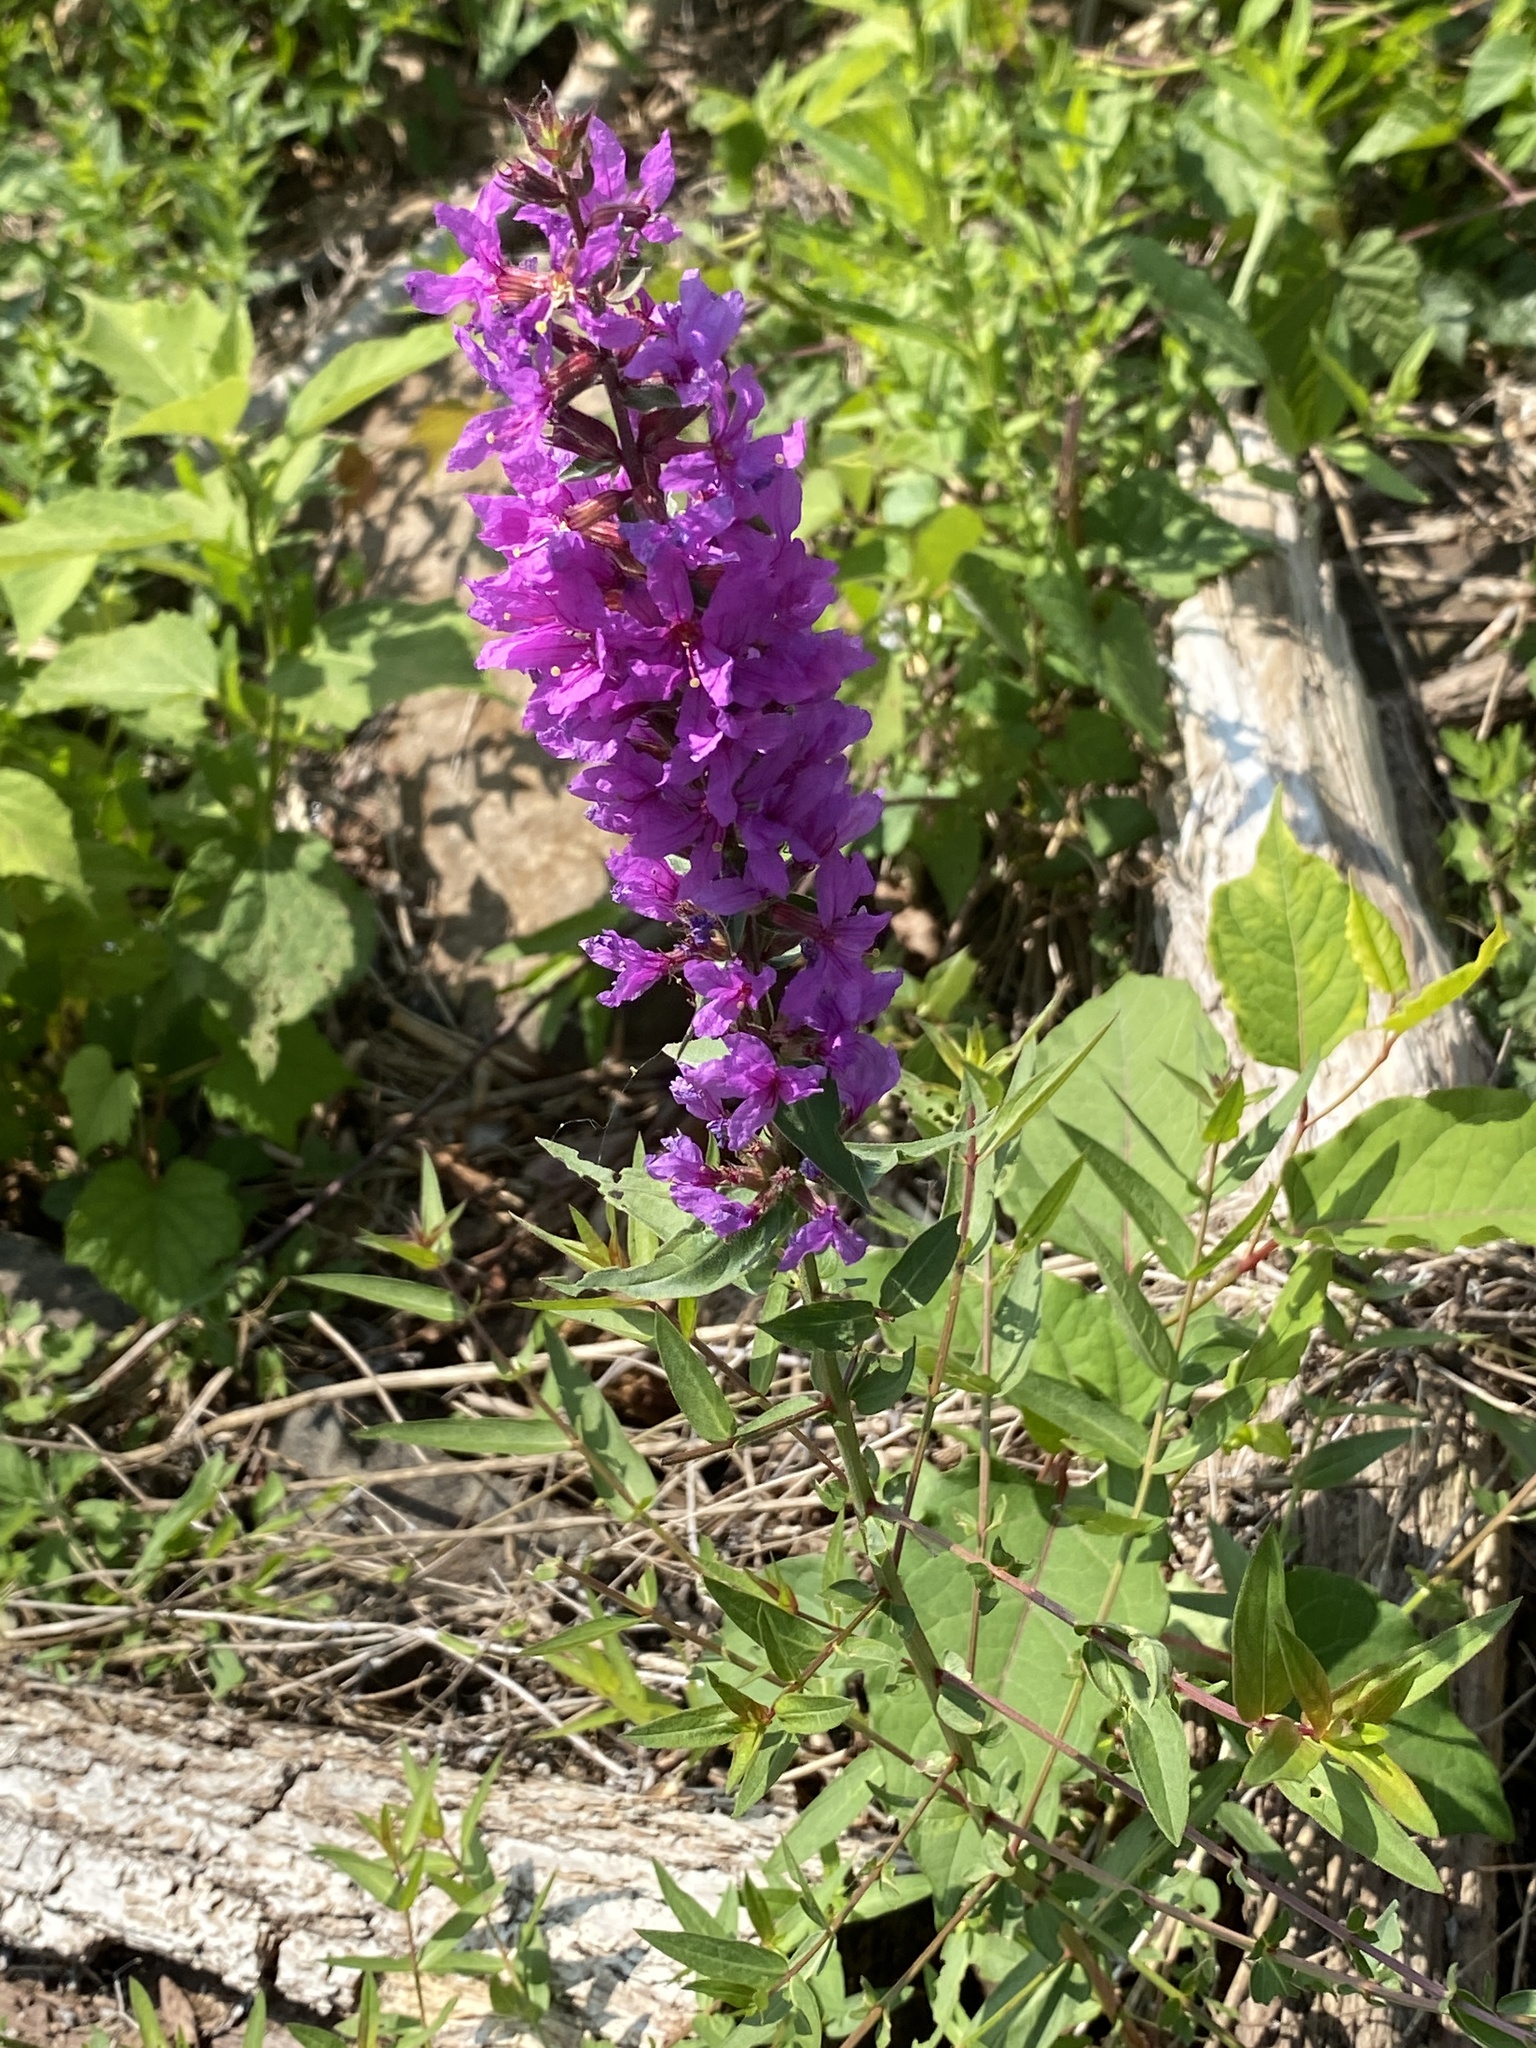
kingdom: Plantae
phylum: Tracheophyta
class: Magnoliopsida
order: Myrtales
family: Lythraceae
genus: Lythrum
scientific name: Lythrum salicaria
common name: Purple loosestrife
